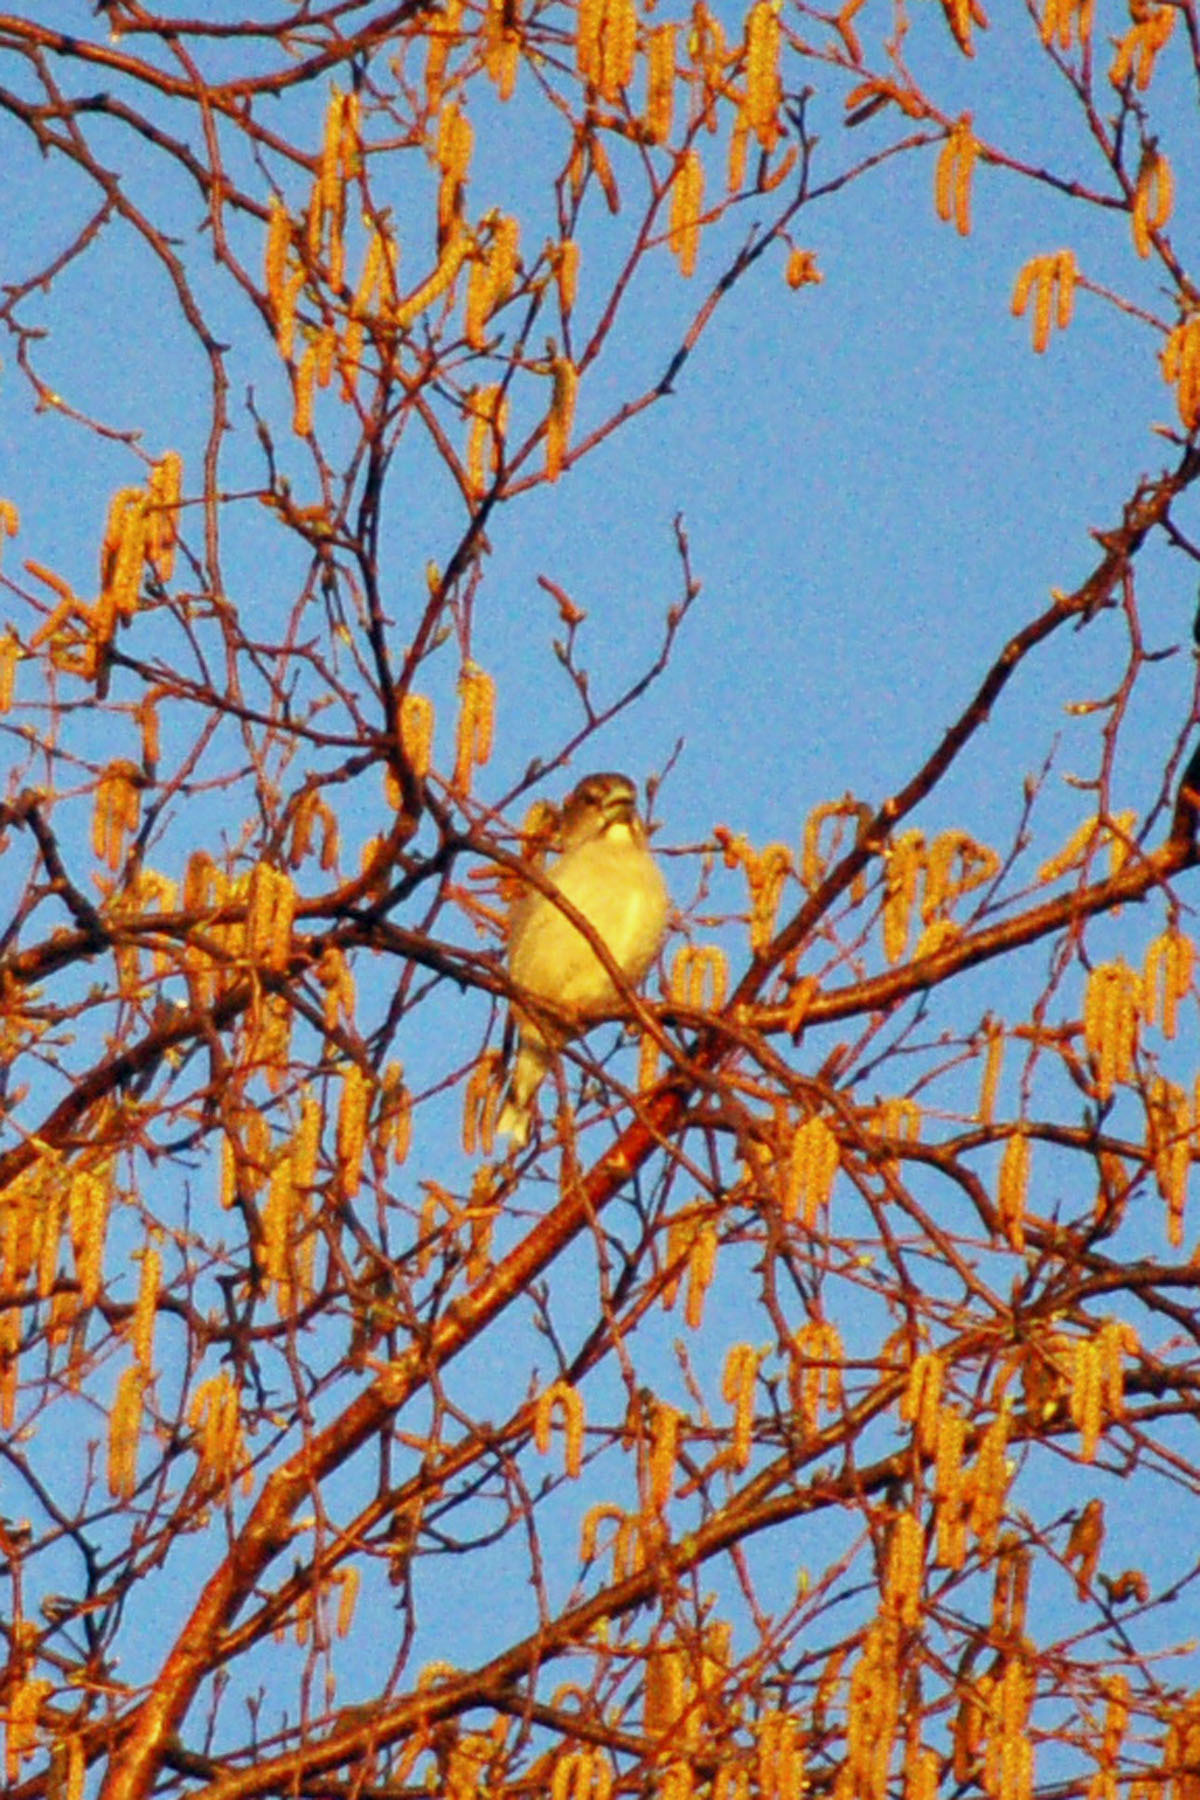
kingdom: Animalia
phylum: Chordata
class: Aves
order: Passeriformes
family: Fringillidae
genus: Hesperiphona
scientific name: Hesperiphona vespertina
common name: Evening grosbeak
